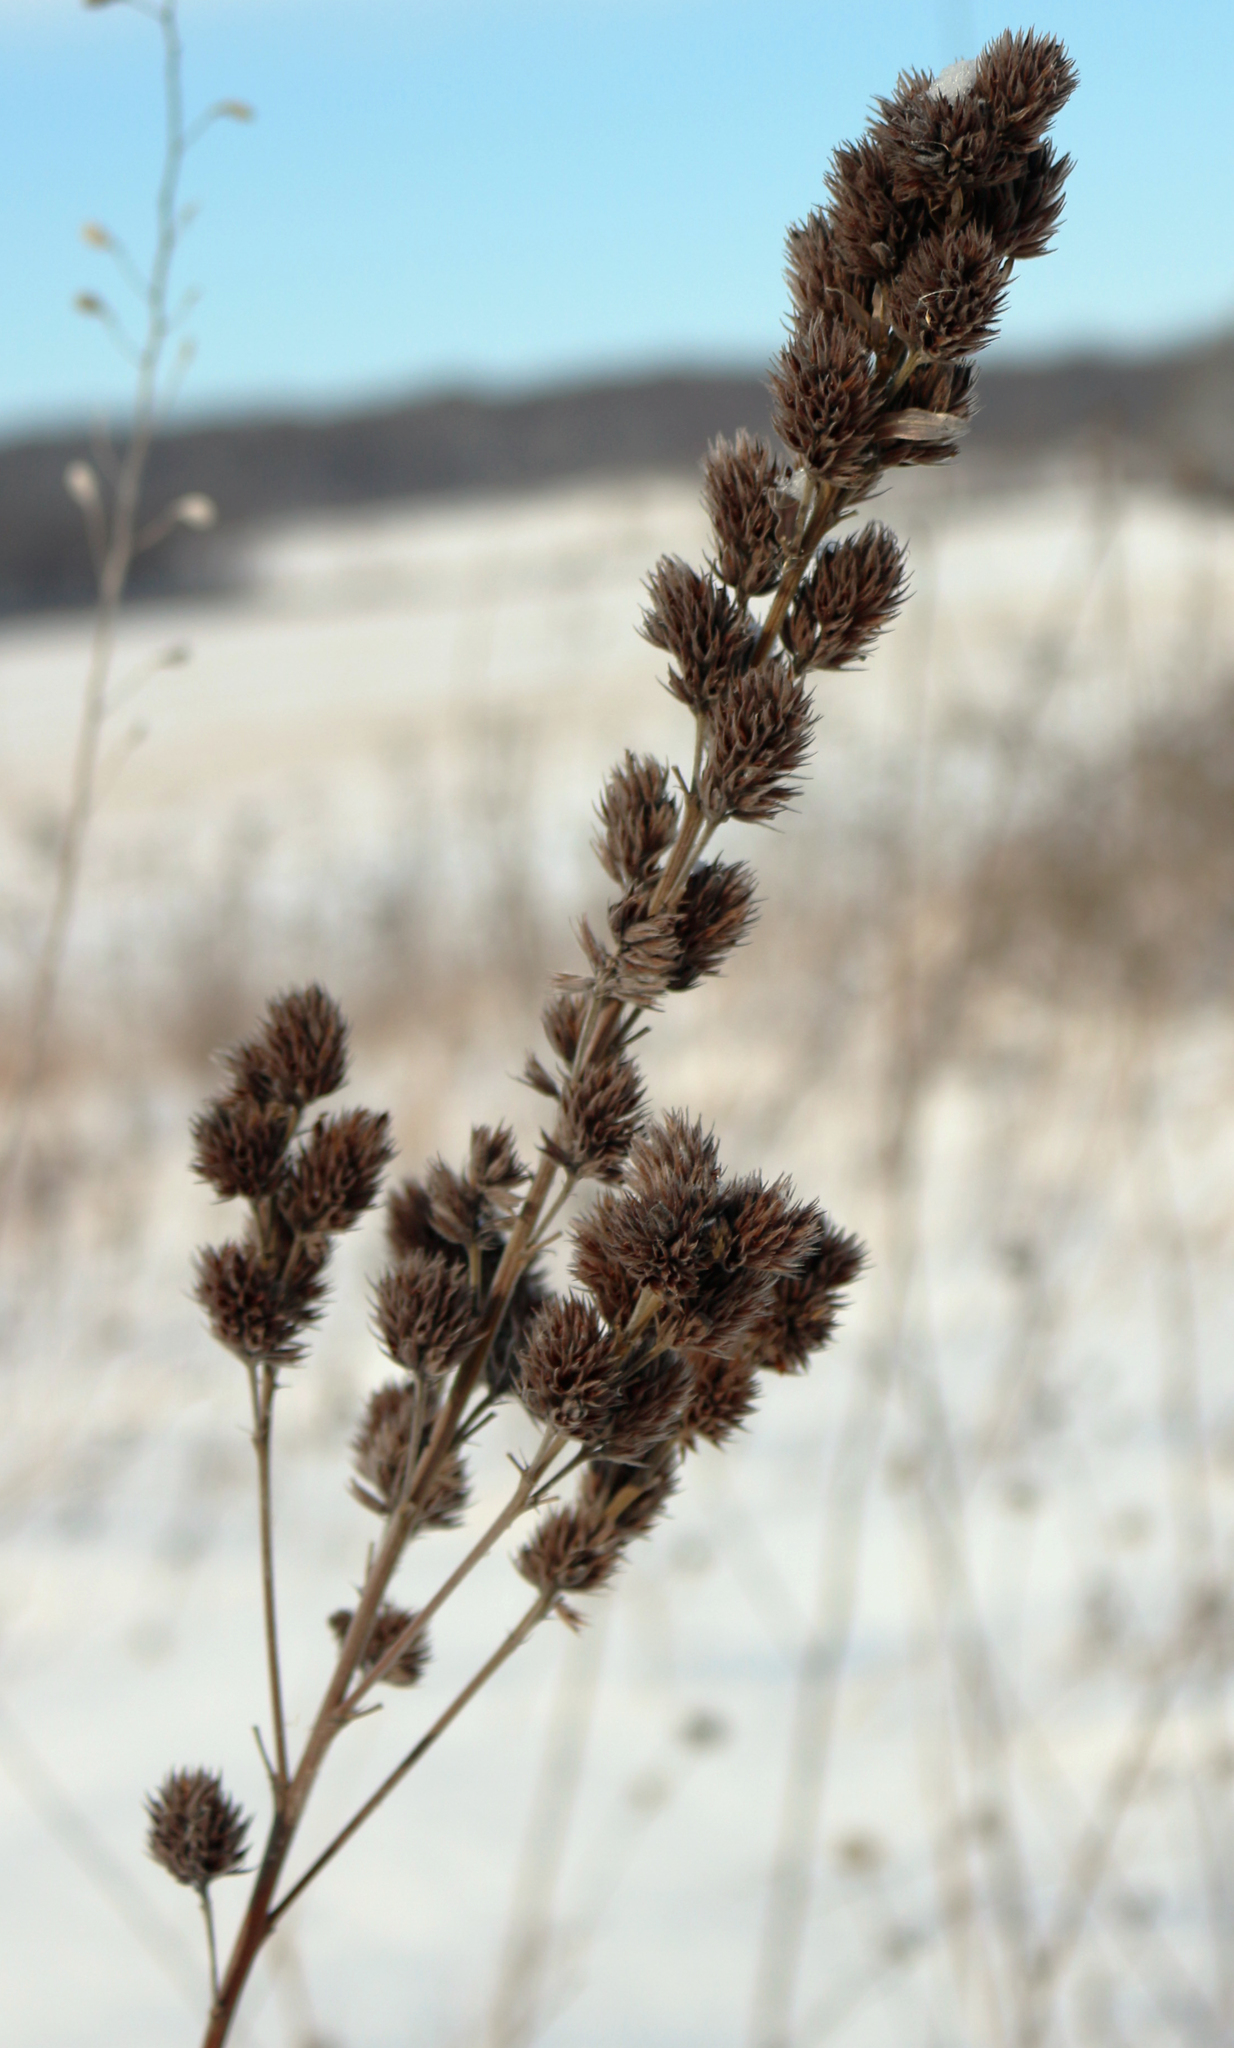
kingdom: Plantae
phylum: Tracheophyta
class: Magnoliopsida
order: Fabales
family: Fabaceae
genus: Lespedeza
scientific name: Lespedeza capitata
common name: Dusty clover
